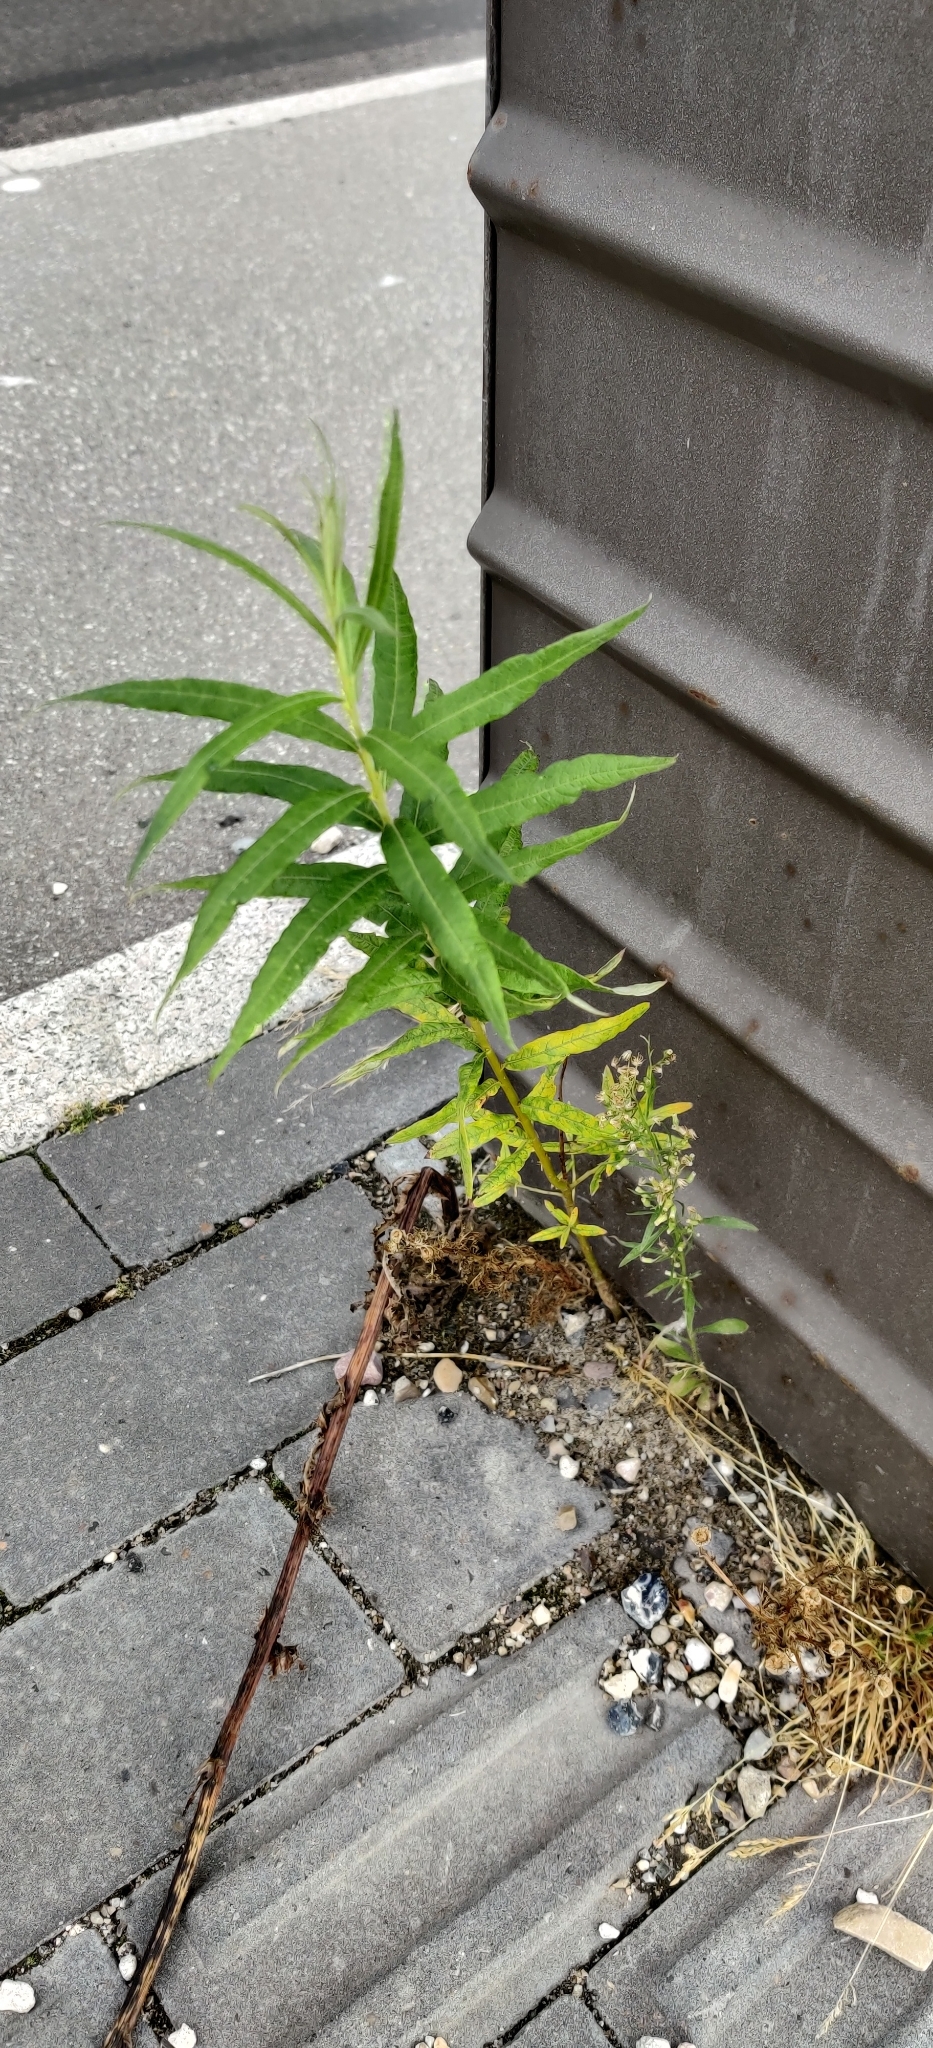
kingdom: Plantae
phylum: Tracheophyta
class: Magnoliopsida
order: Myrtales
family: Onagraceae
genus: Chamaenerion
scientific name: Chamaenerion angustifolium
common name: Fireweed
